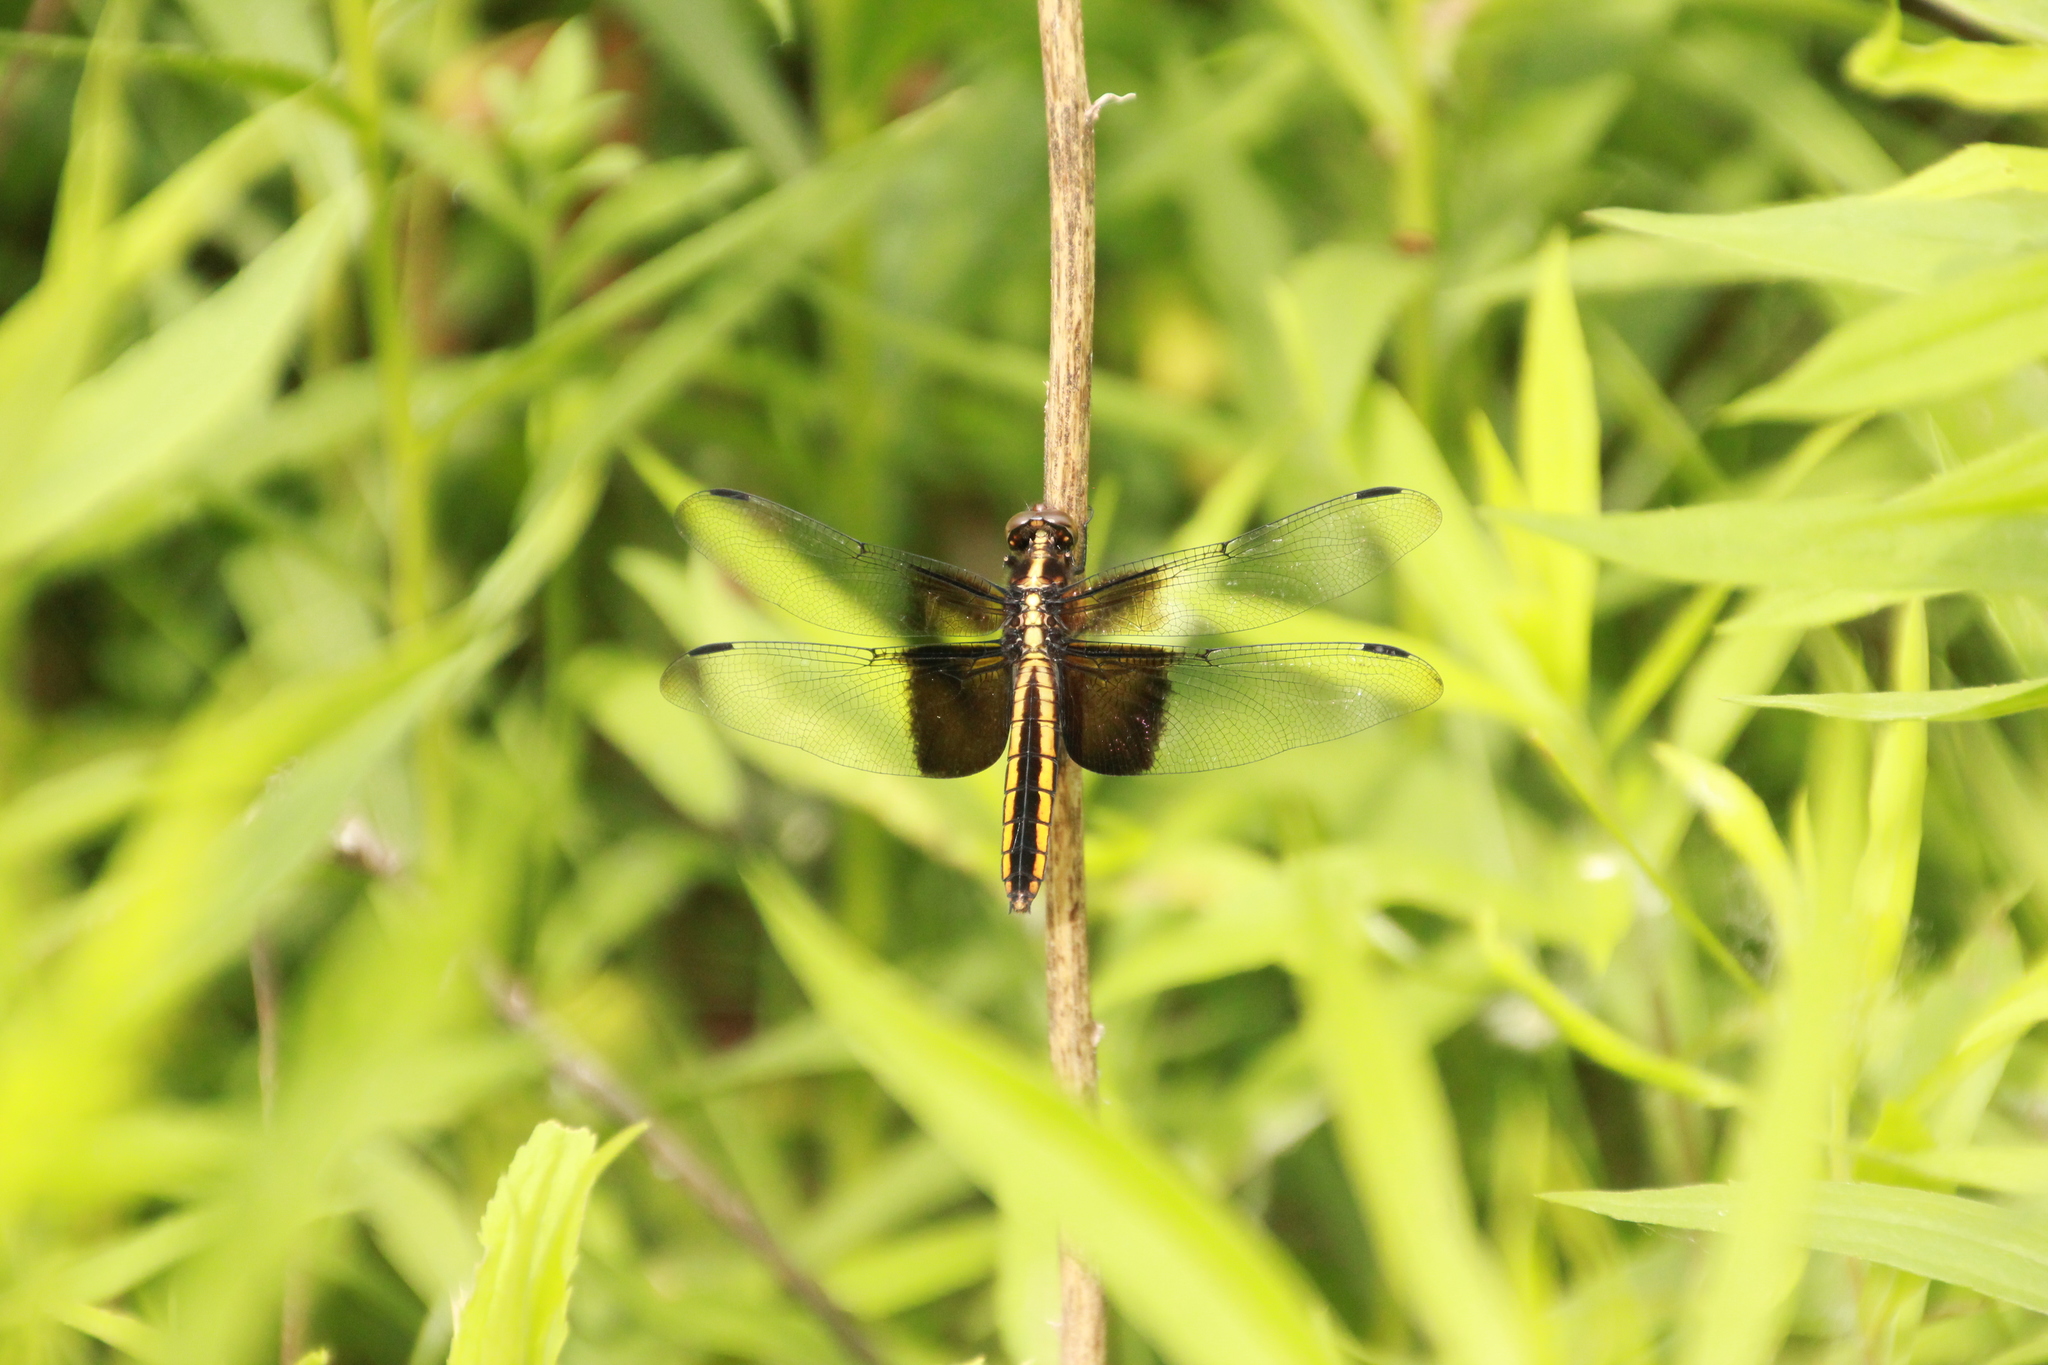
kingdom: Animalia
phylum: Arthropoda
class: Insecta
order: Odonata
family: Libellulidae
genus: Libellula
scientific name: Libellula luctuosa
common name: Widow skimmer
